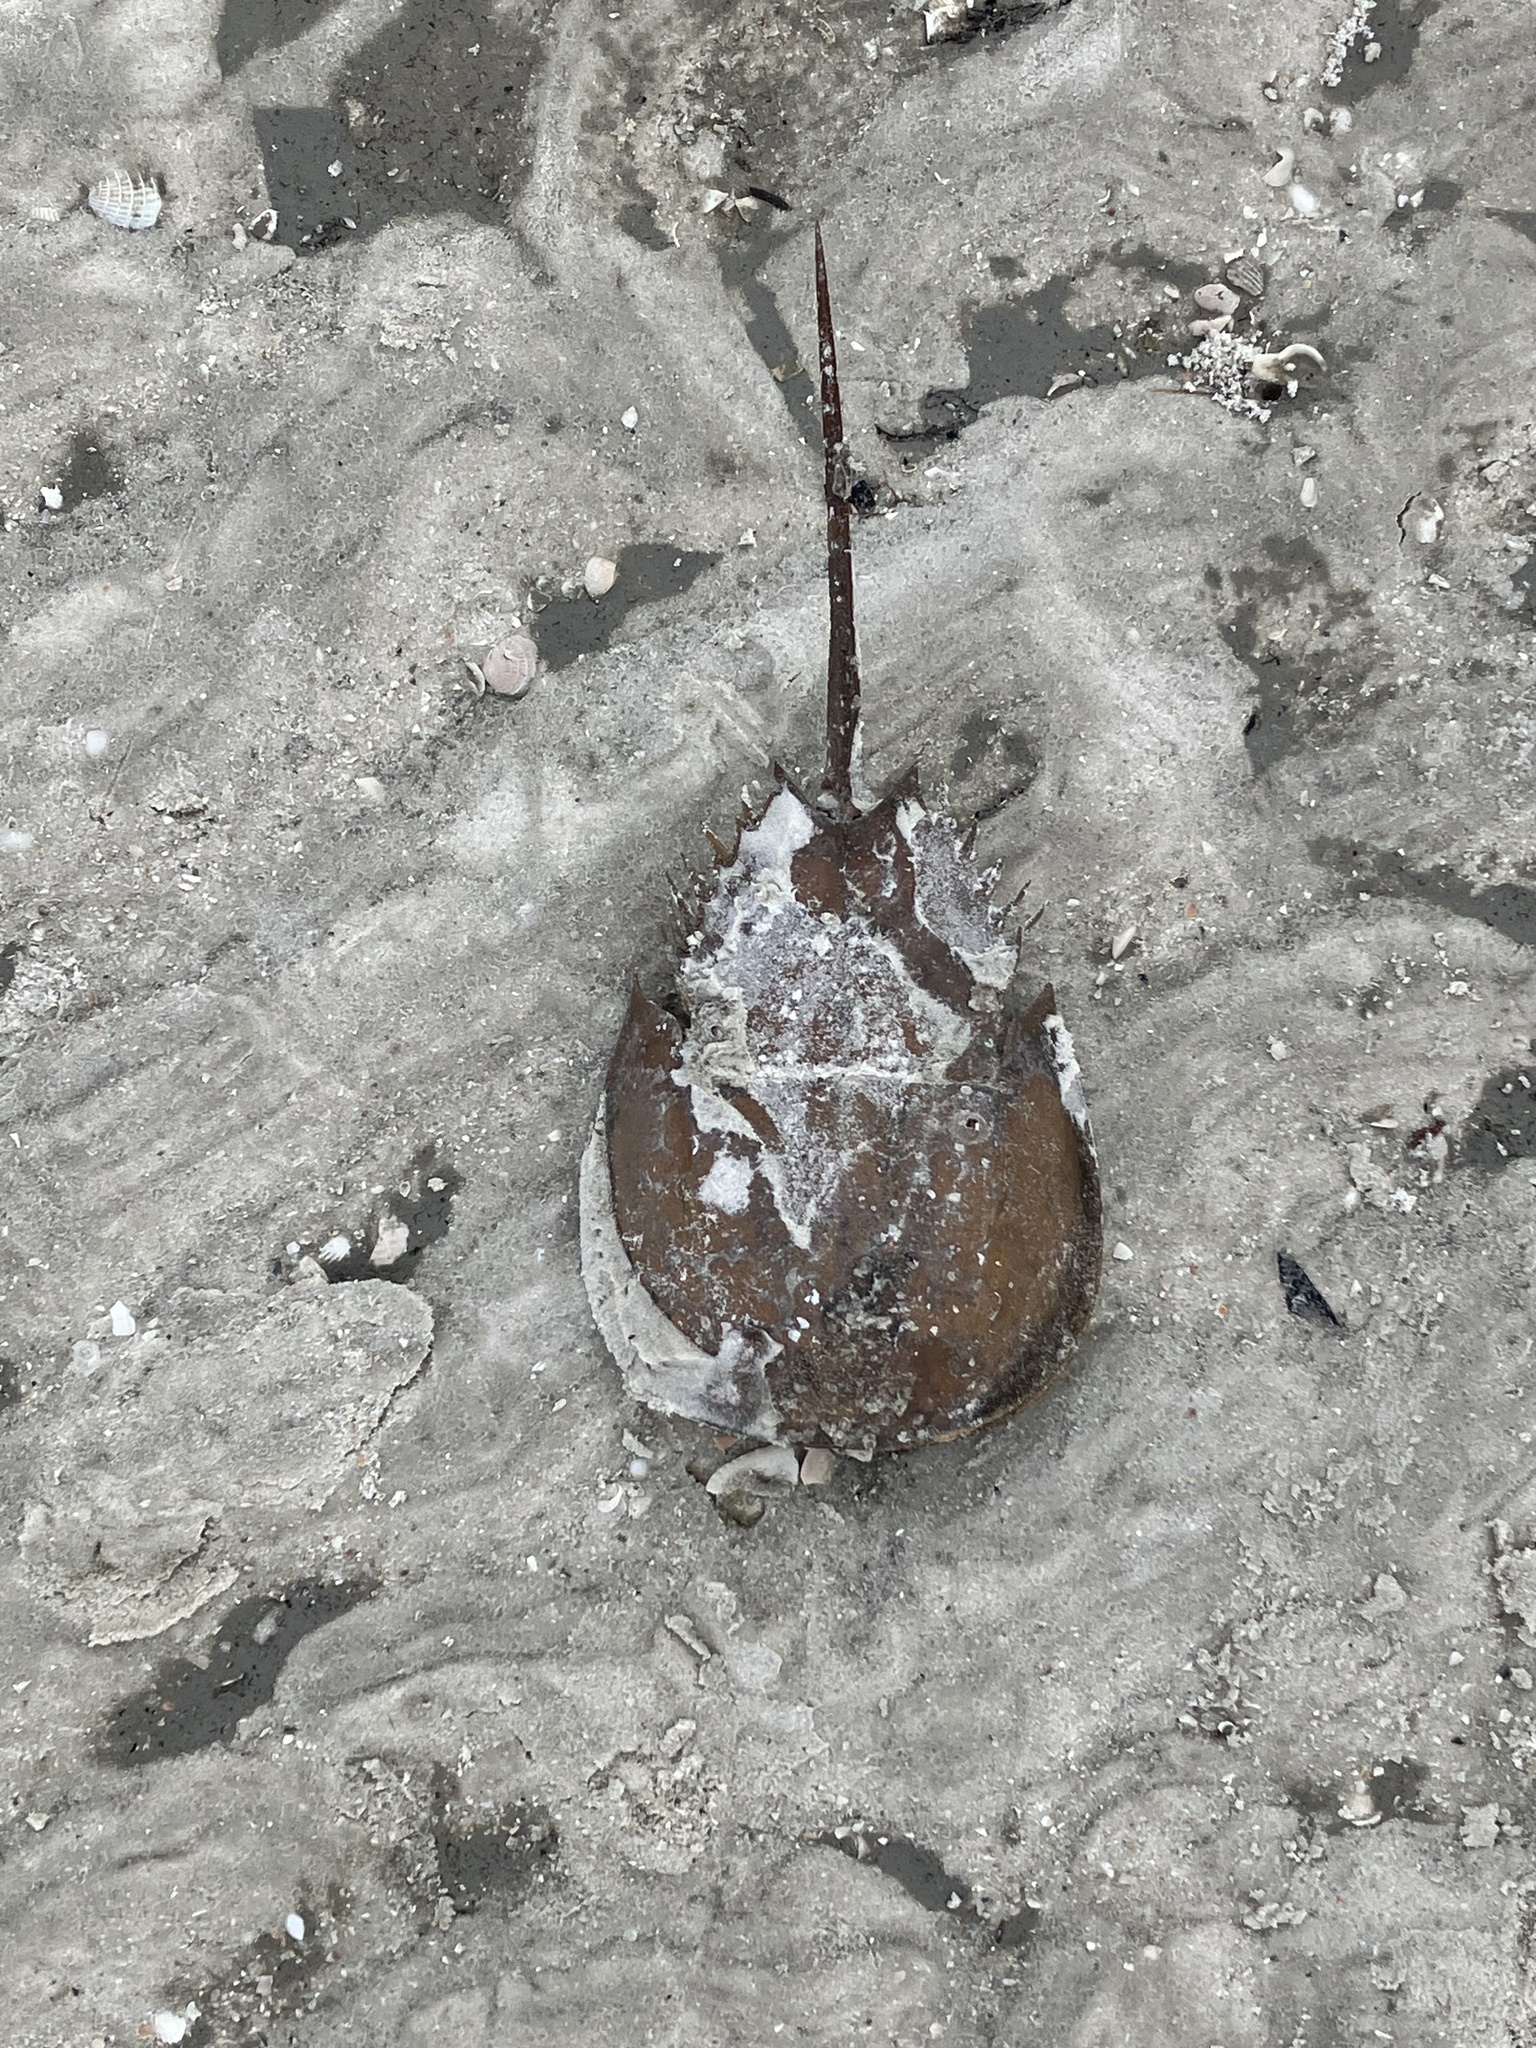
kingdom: Animalia
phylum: Arthropoda
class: Merostomata
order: Xiphosurida
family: Limulidae
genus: Limulus
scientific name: Limulus polyphemus
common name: Horseshoe crab
